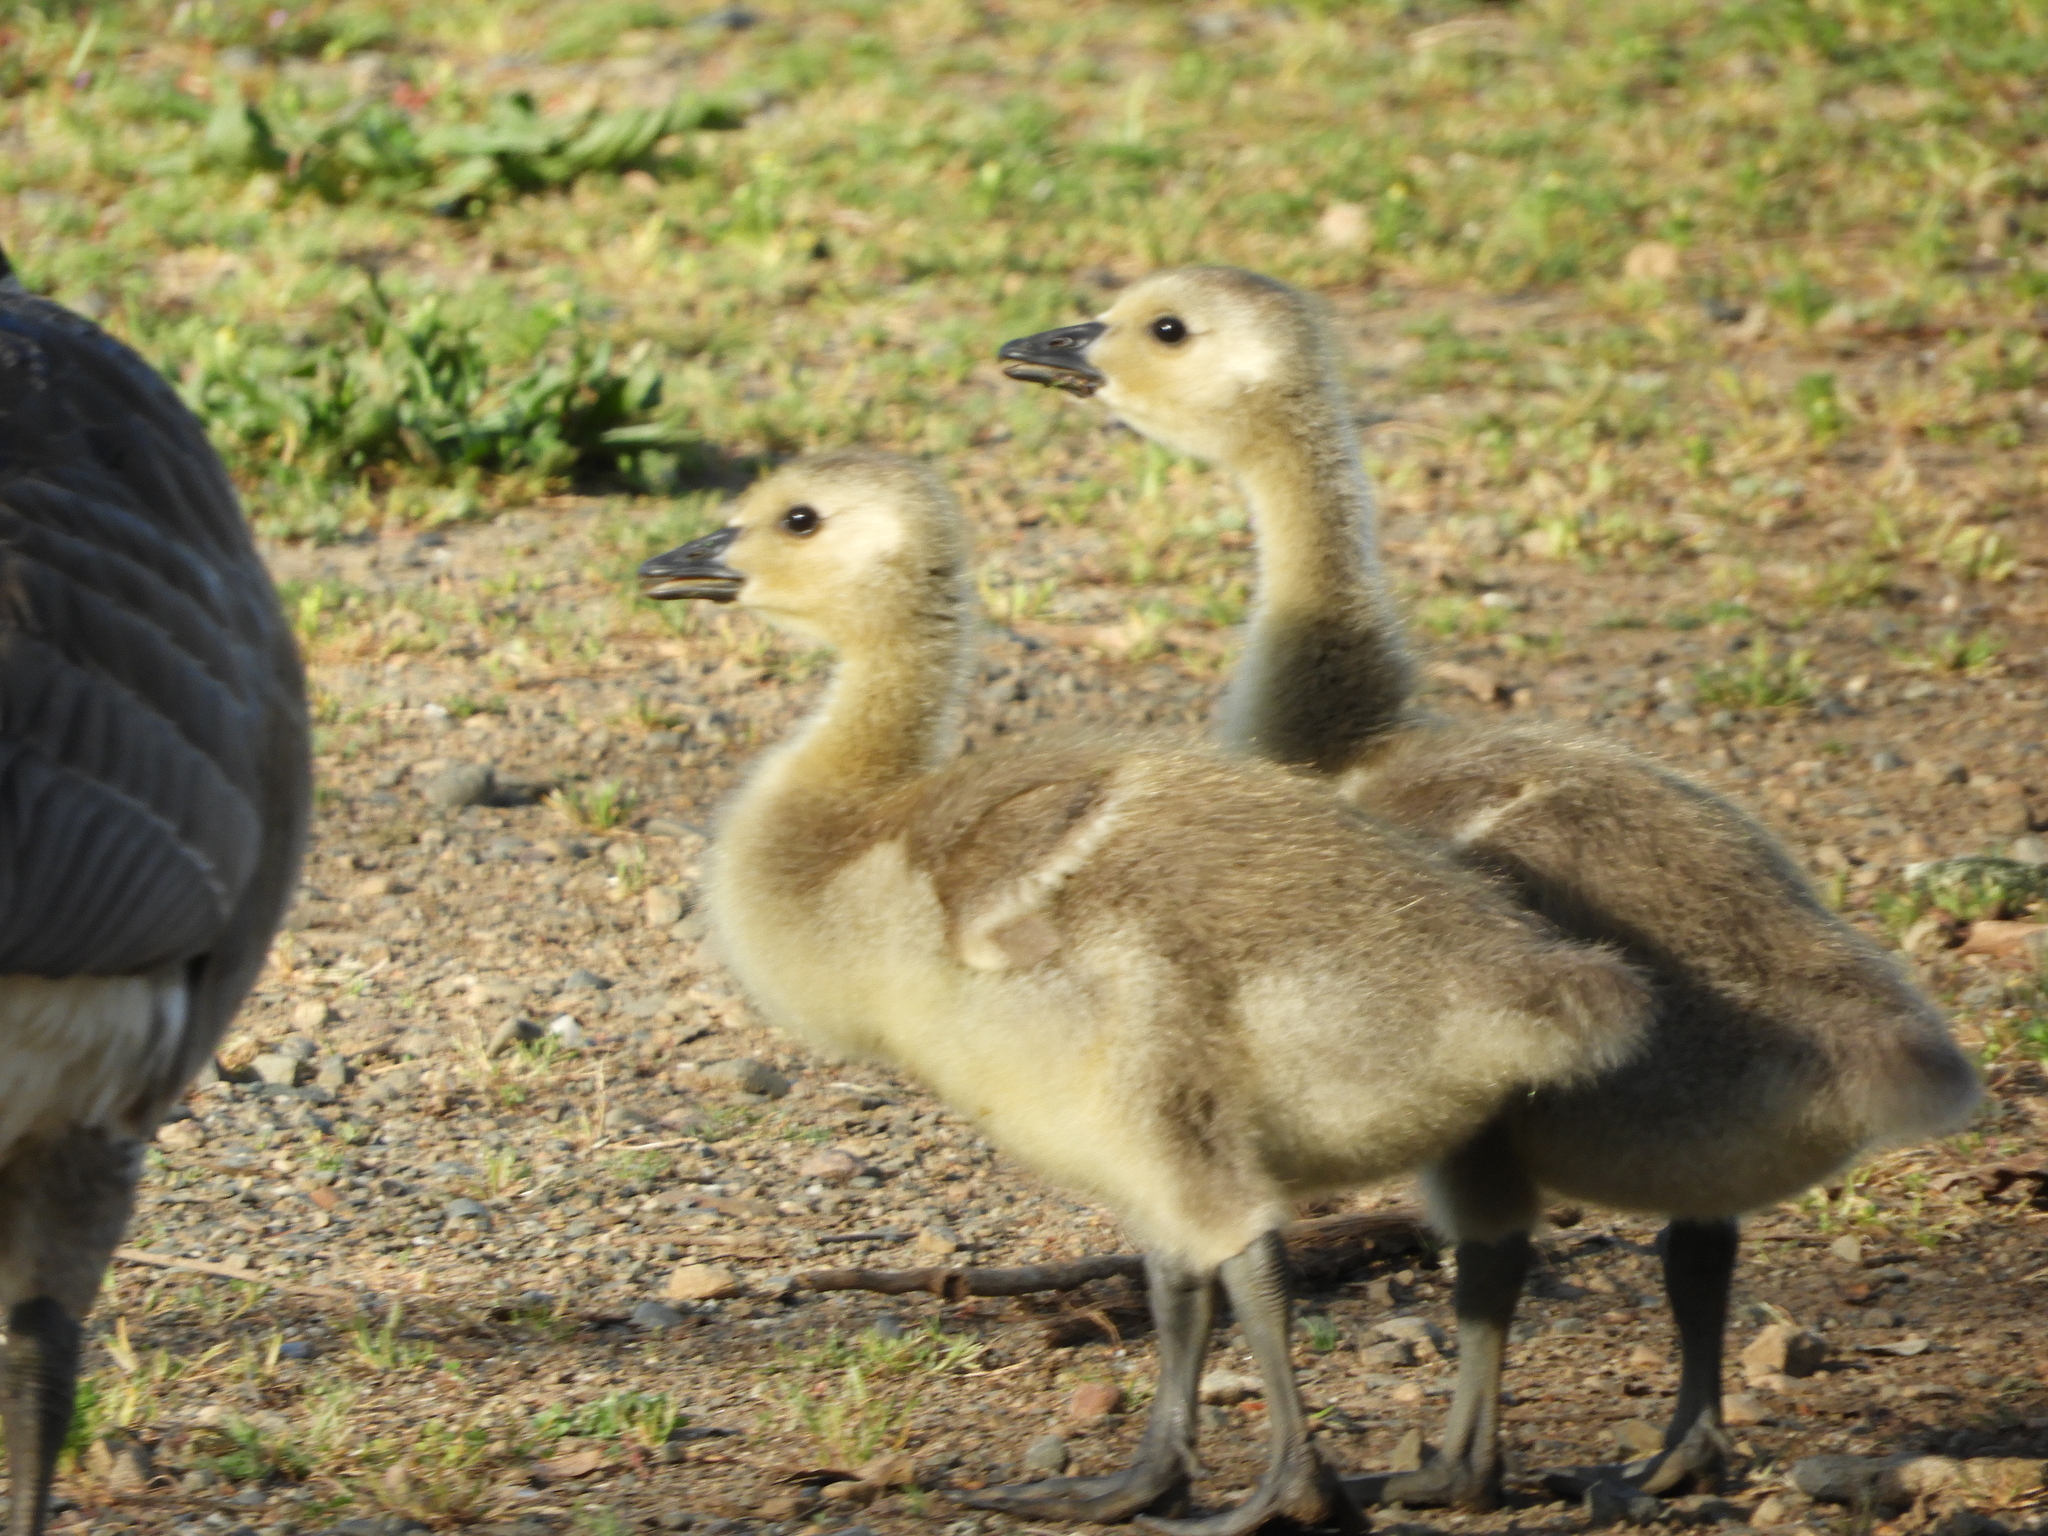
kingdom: Animalia
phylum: Chordata
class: Aves
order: Anseriformes
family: Anatidae
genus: Branta
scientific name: Branta canadensis
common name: Canada goose
